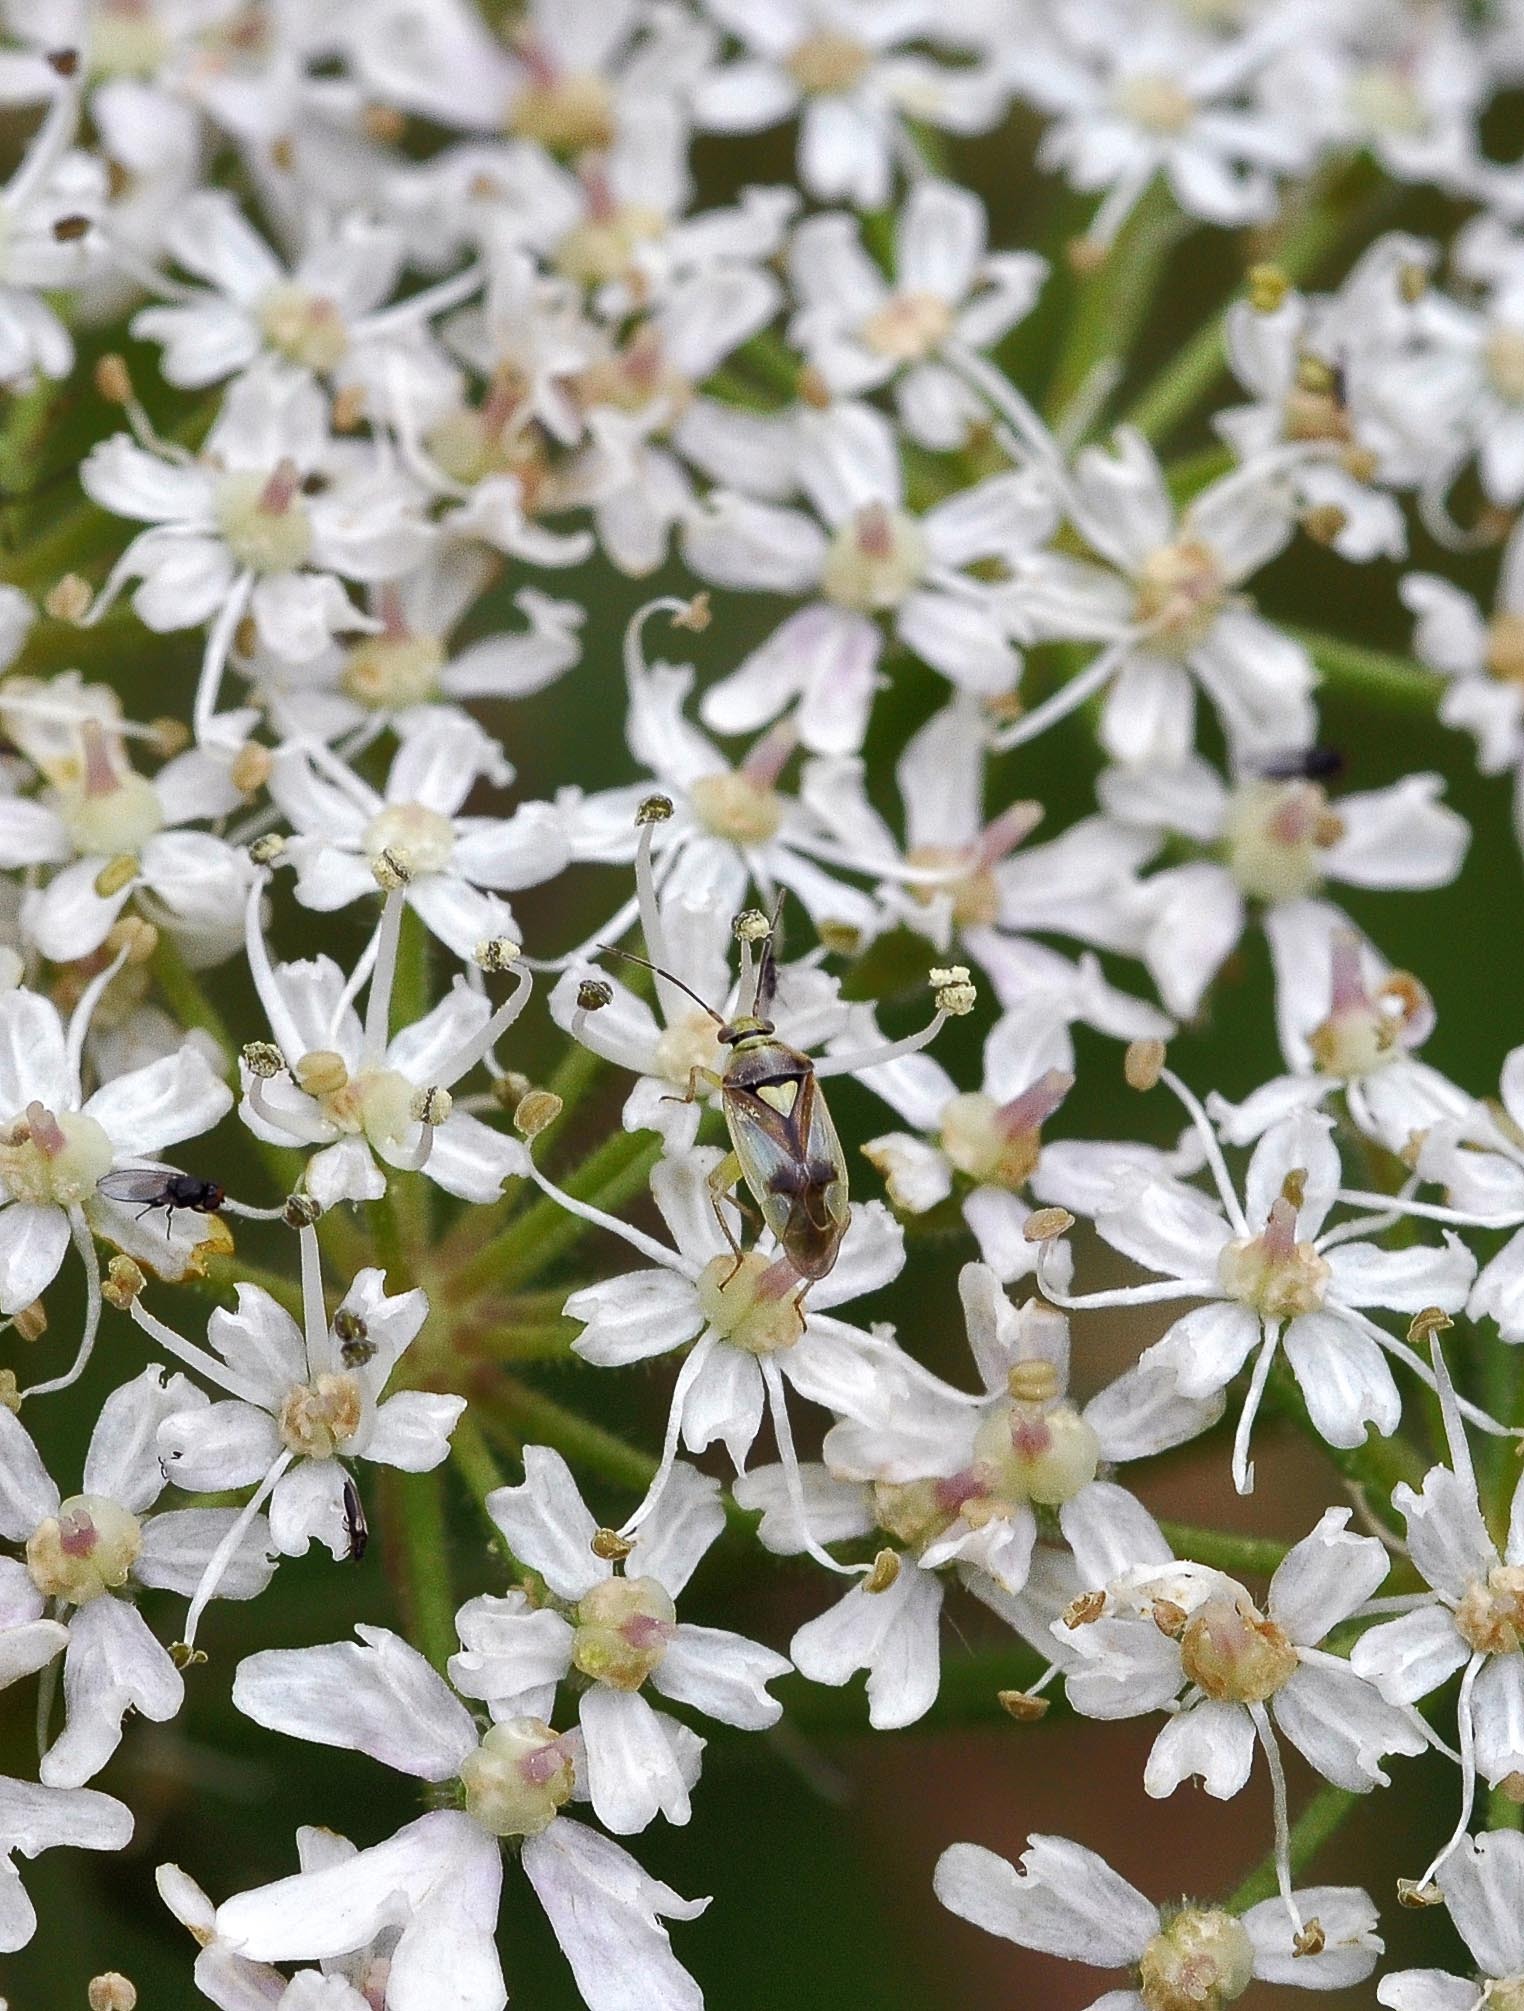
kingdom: Animalia
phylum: Arthropoda
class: Insecta
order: Hemiptera
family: Miridae
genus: Orthops
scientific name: Orthops campestris
